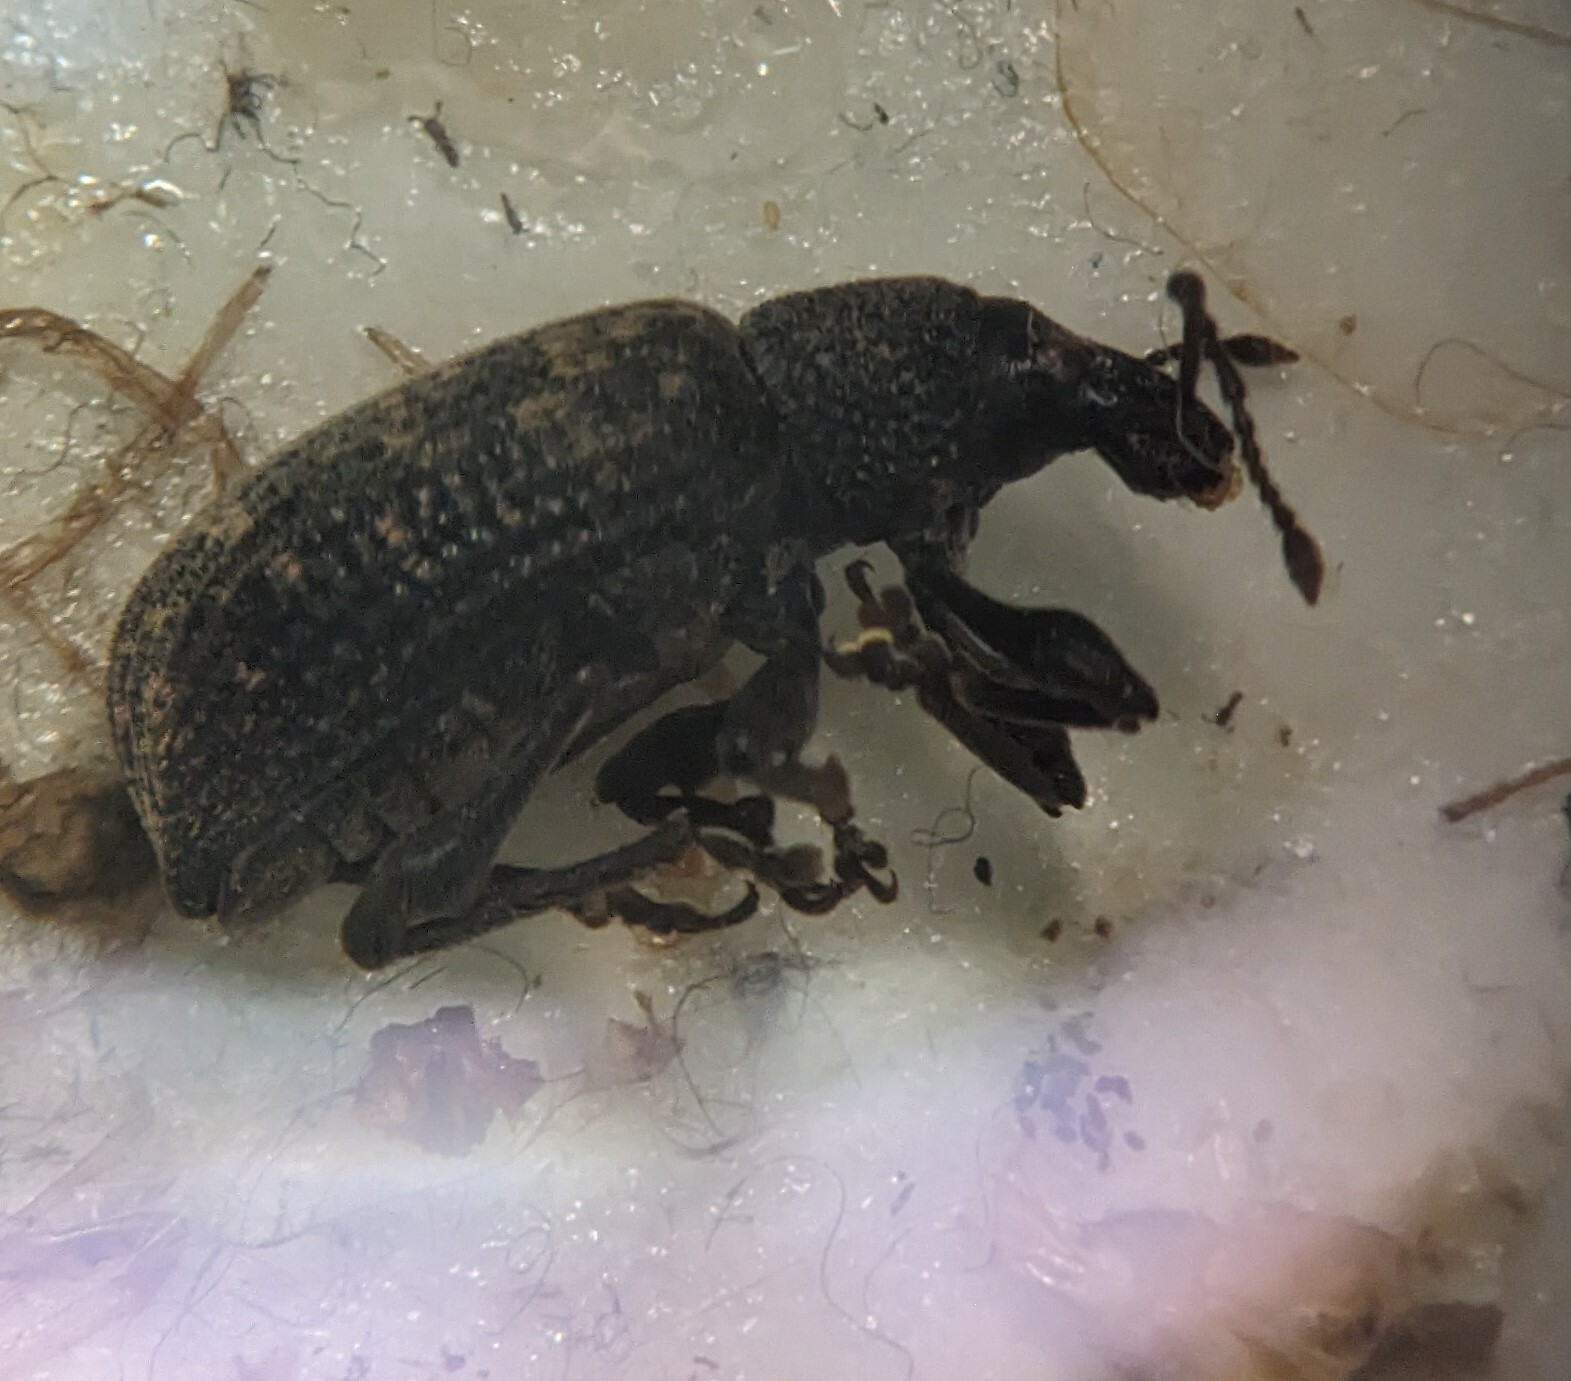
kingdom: Animalia
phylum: Arthropoda
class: Insecta
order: Coleoptera
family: Curculionidae
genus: Otiorhynchus
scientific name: Otiorhynchus sulcatus
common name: Black vine weevil
